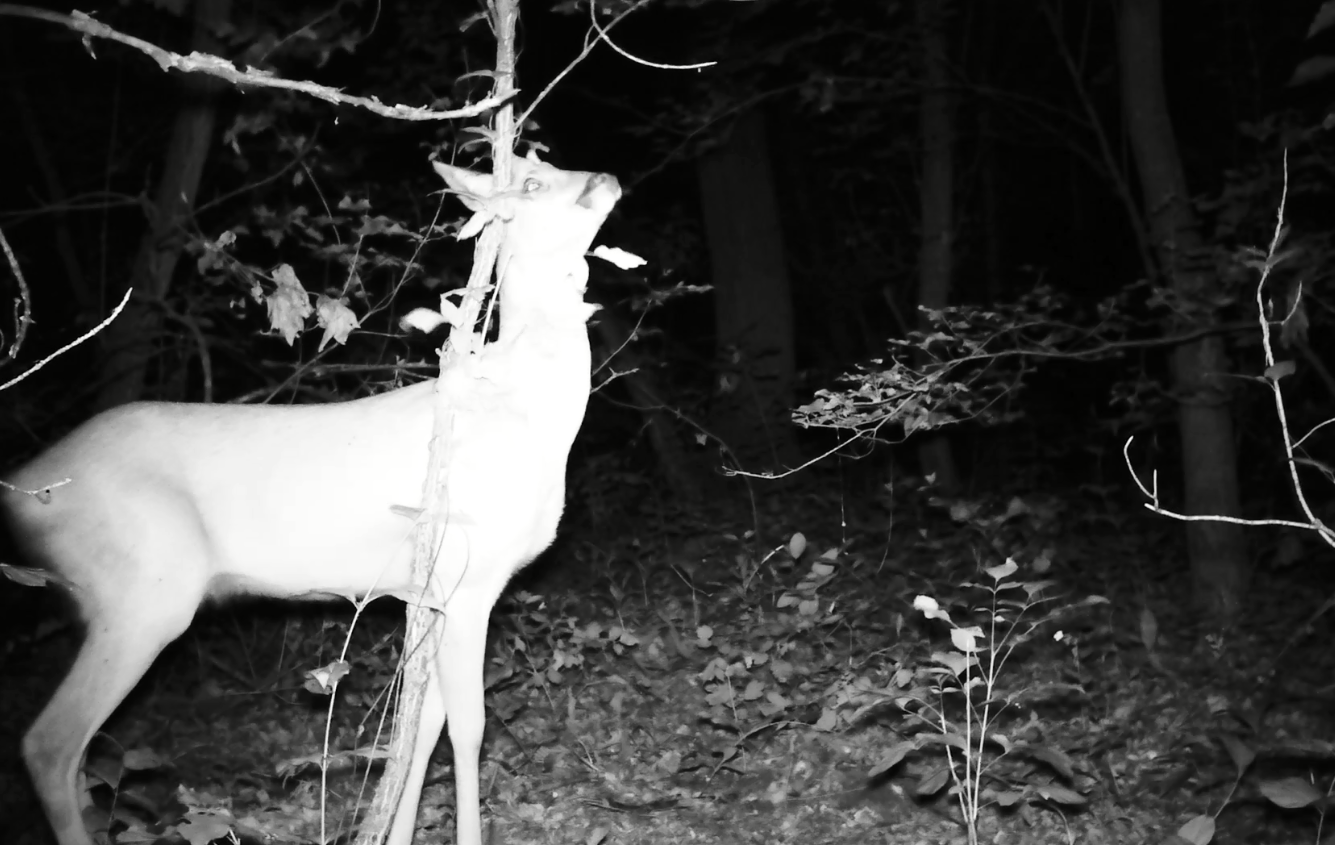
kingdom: Animalia
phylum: Chordata
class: Mammalia
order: Artiodactyla
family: Cervidae
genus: Capreolus
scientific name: Capreolus pygargus
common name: Siberian roe
